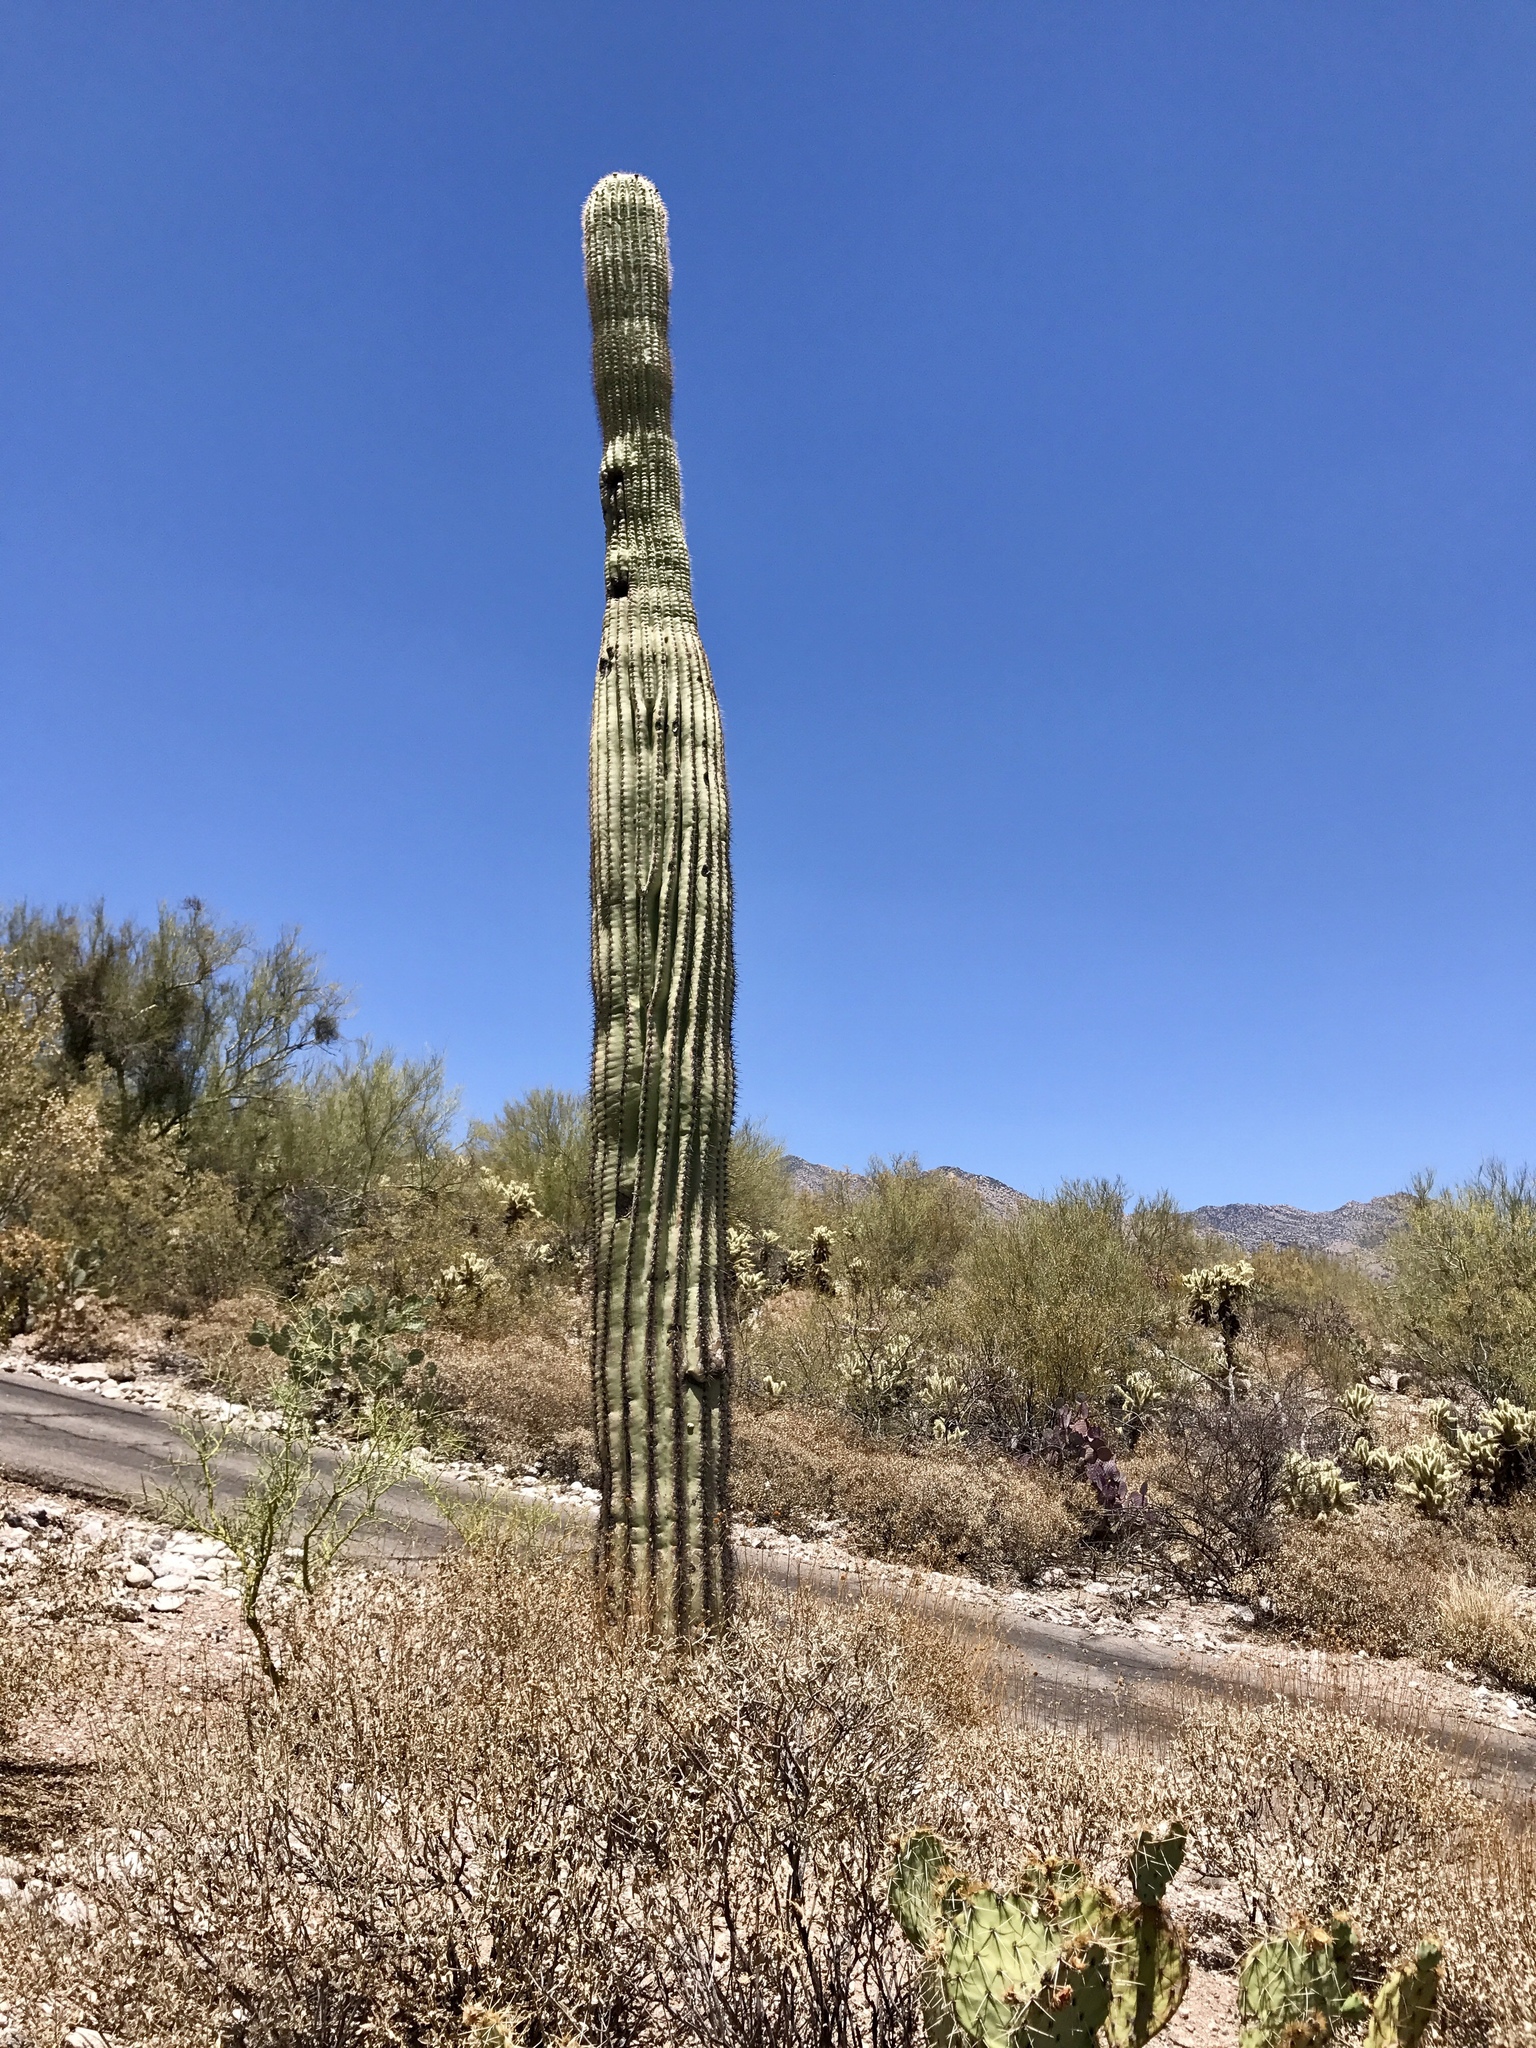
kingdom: Plantae
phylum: Tracheophyta
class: Magnoliopsida
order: Caryophyllales
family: Cactaceae
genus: Carnegiea
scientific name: Carnegiea gigantea
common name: Saguaro
